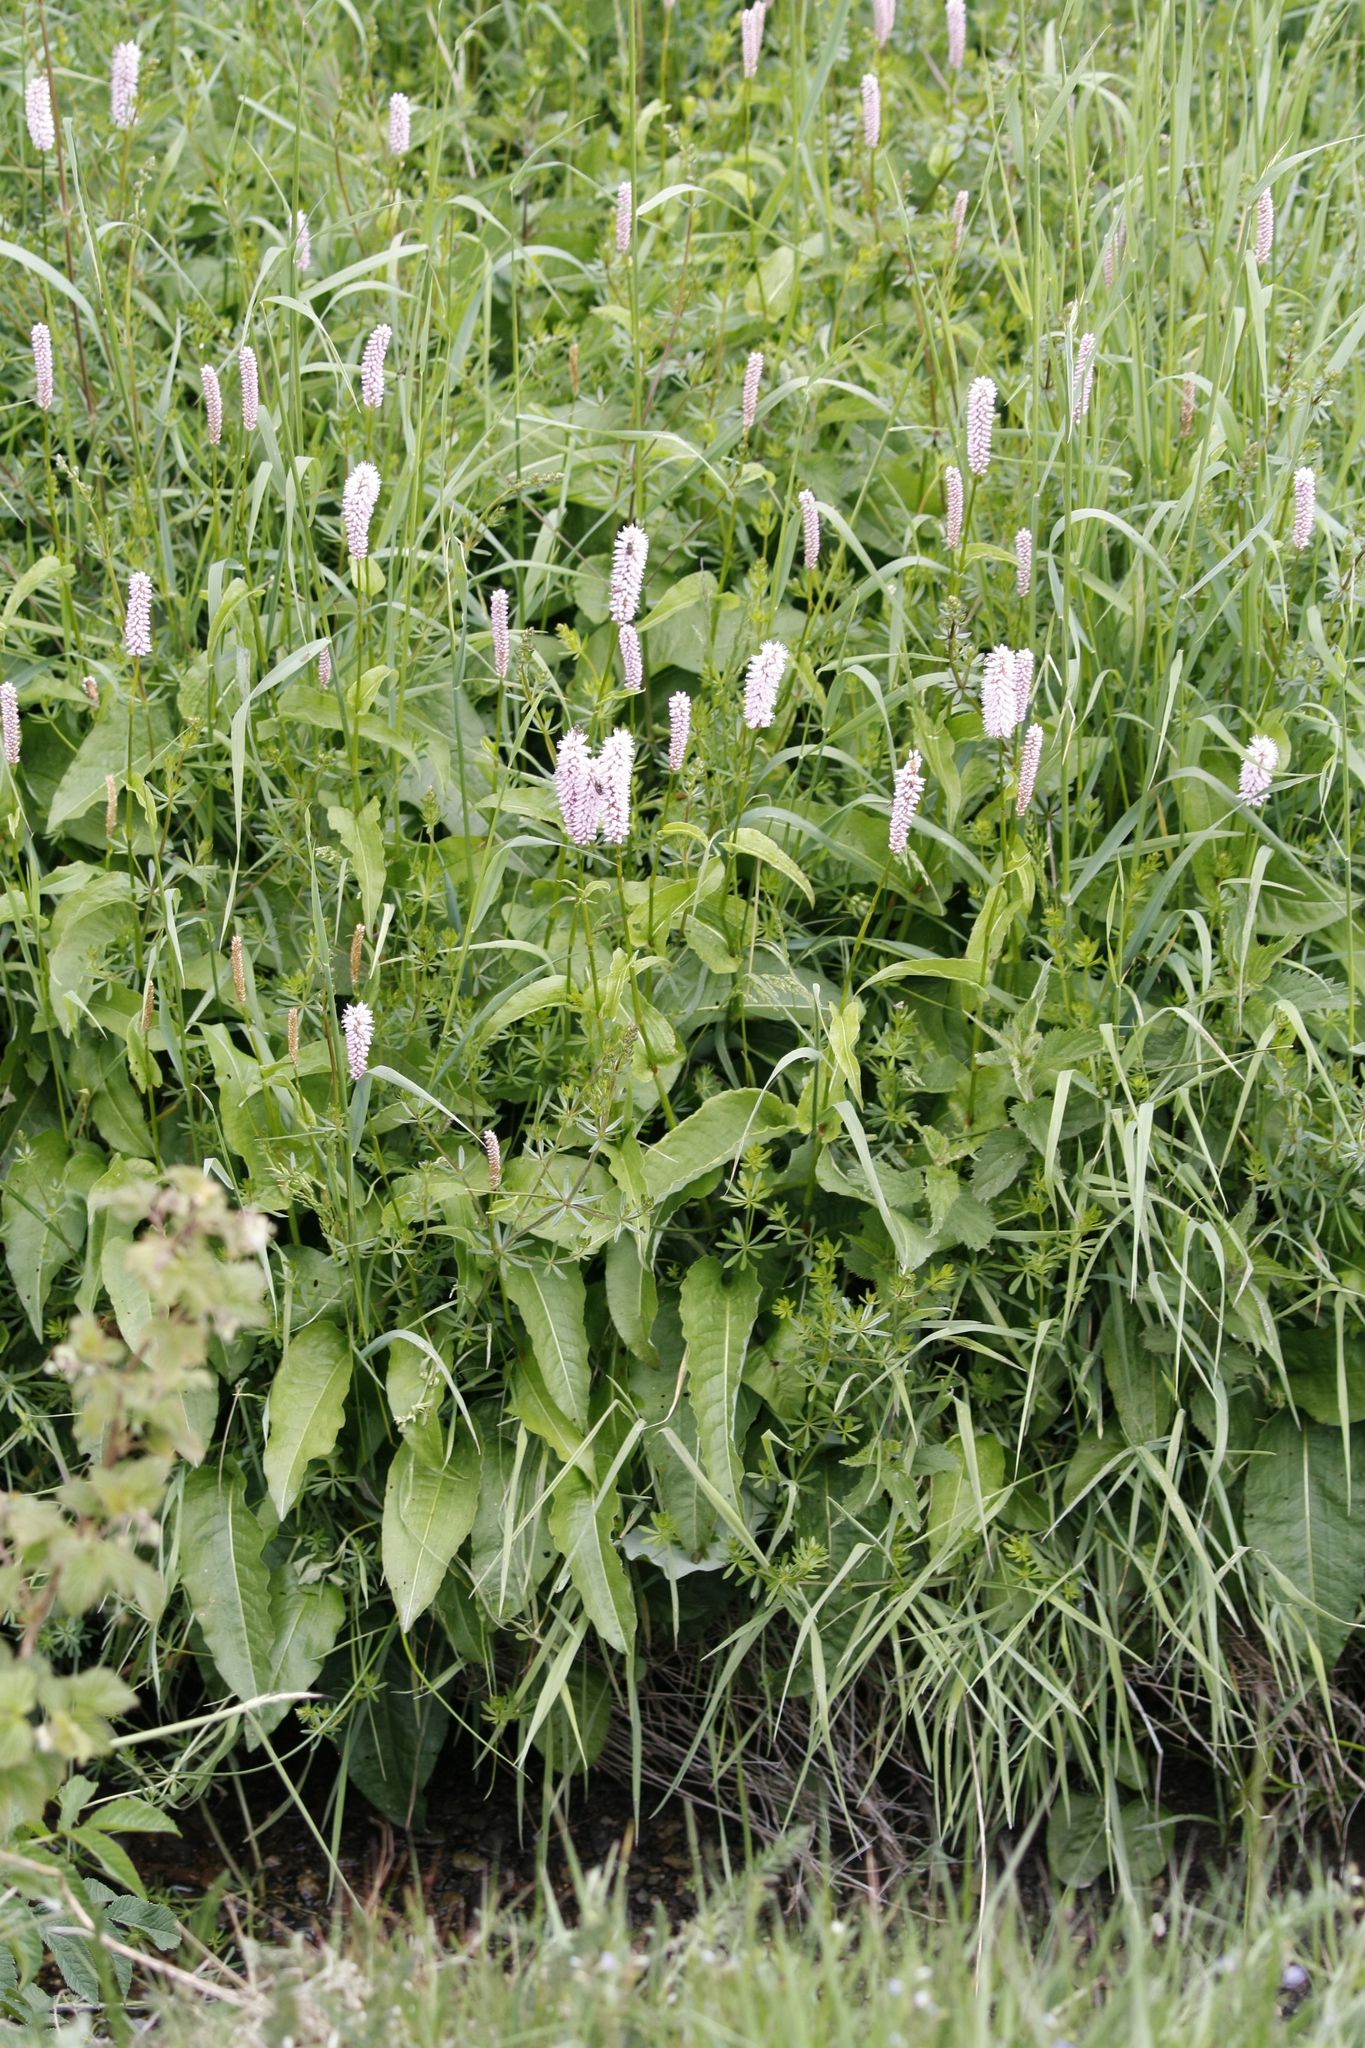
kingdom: Plantae
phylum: Tracheophyta
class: Magnoliopsida
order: Caryophyllales
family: Polygonaceae
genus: Bistorta
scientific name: Bistorta officinalis
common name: Common bistort
